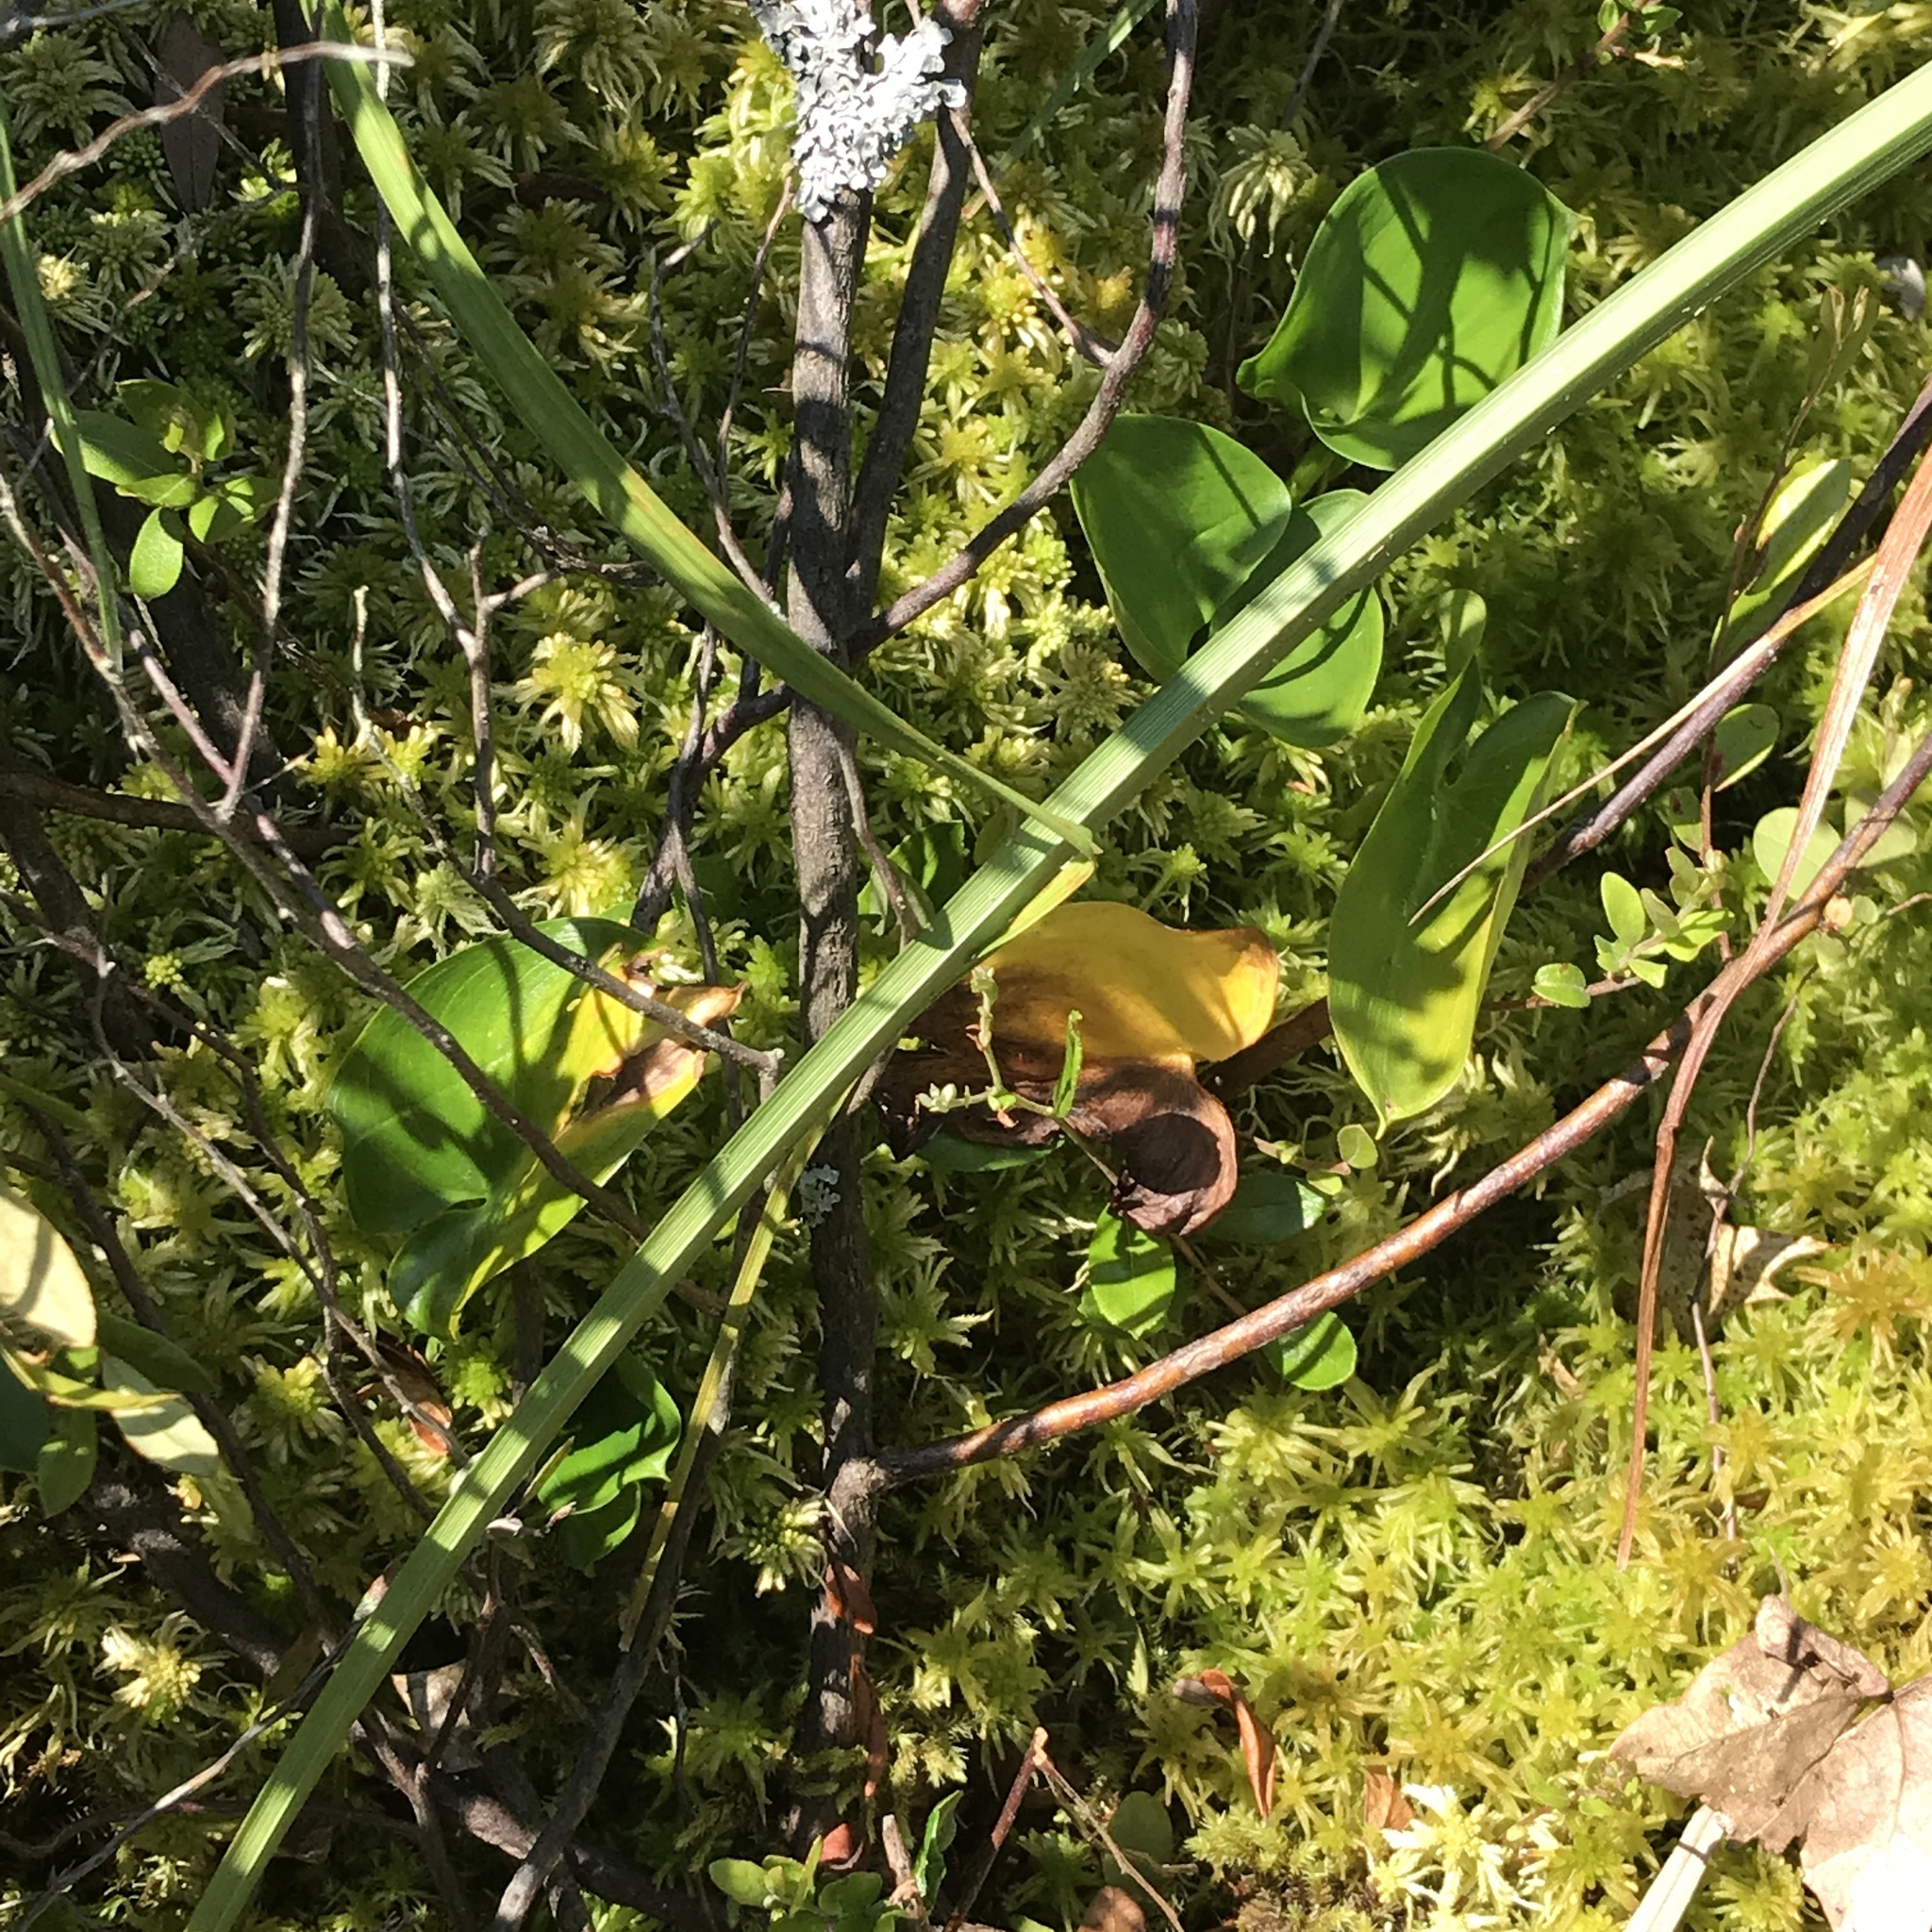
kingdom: Plantae
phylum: Tracheophyta
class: Liliopsida
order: Alismatales
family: Araceae
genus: Calla
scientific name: Calla palustris
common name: Bog arum
